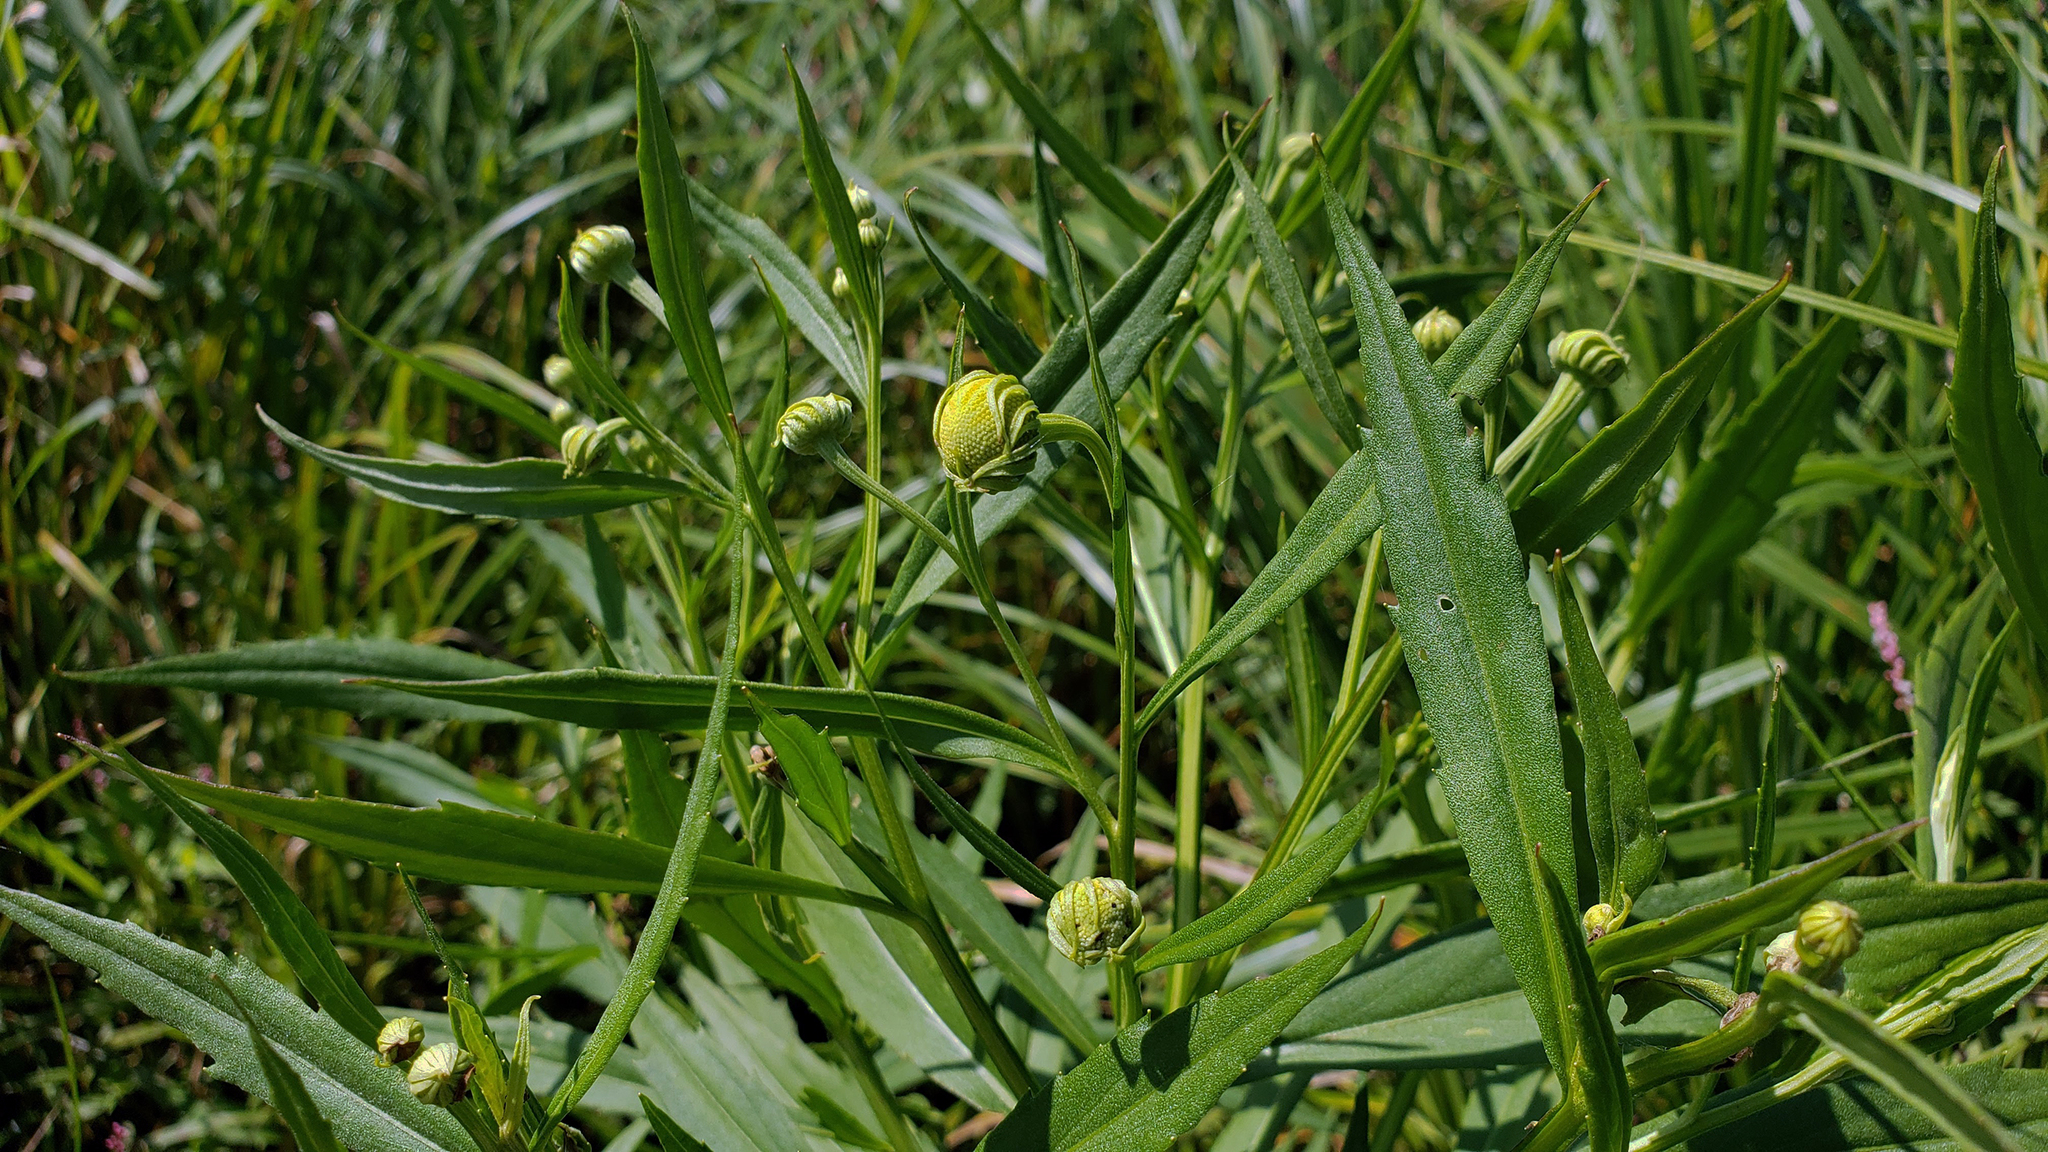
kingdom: Plantae
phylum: Tracheophyta
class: Magnoliopsida
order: Asterales
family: Asteraceae
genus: Helenium
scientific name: Helenium autumnale
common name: Sneezeweed
